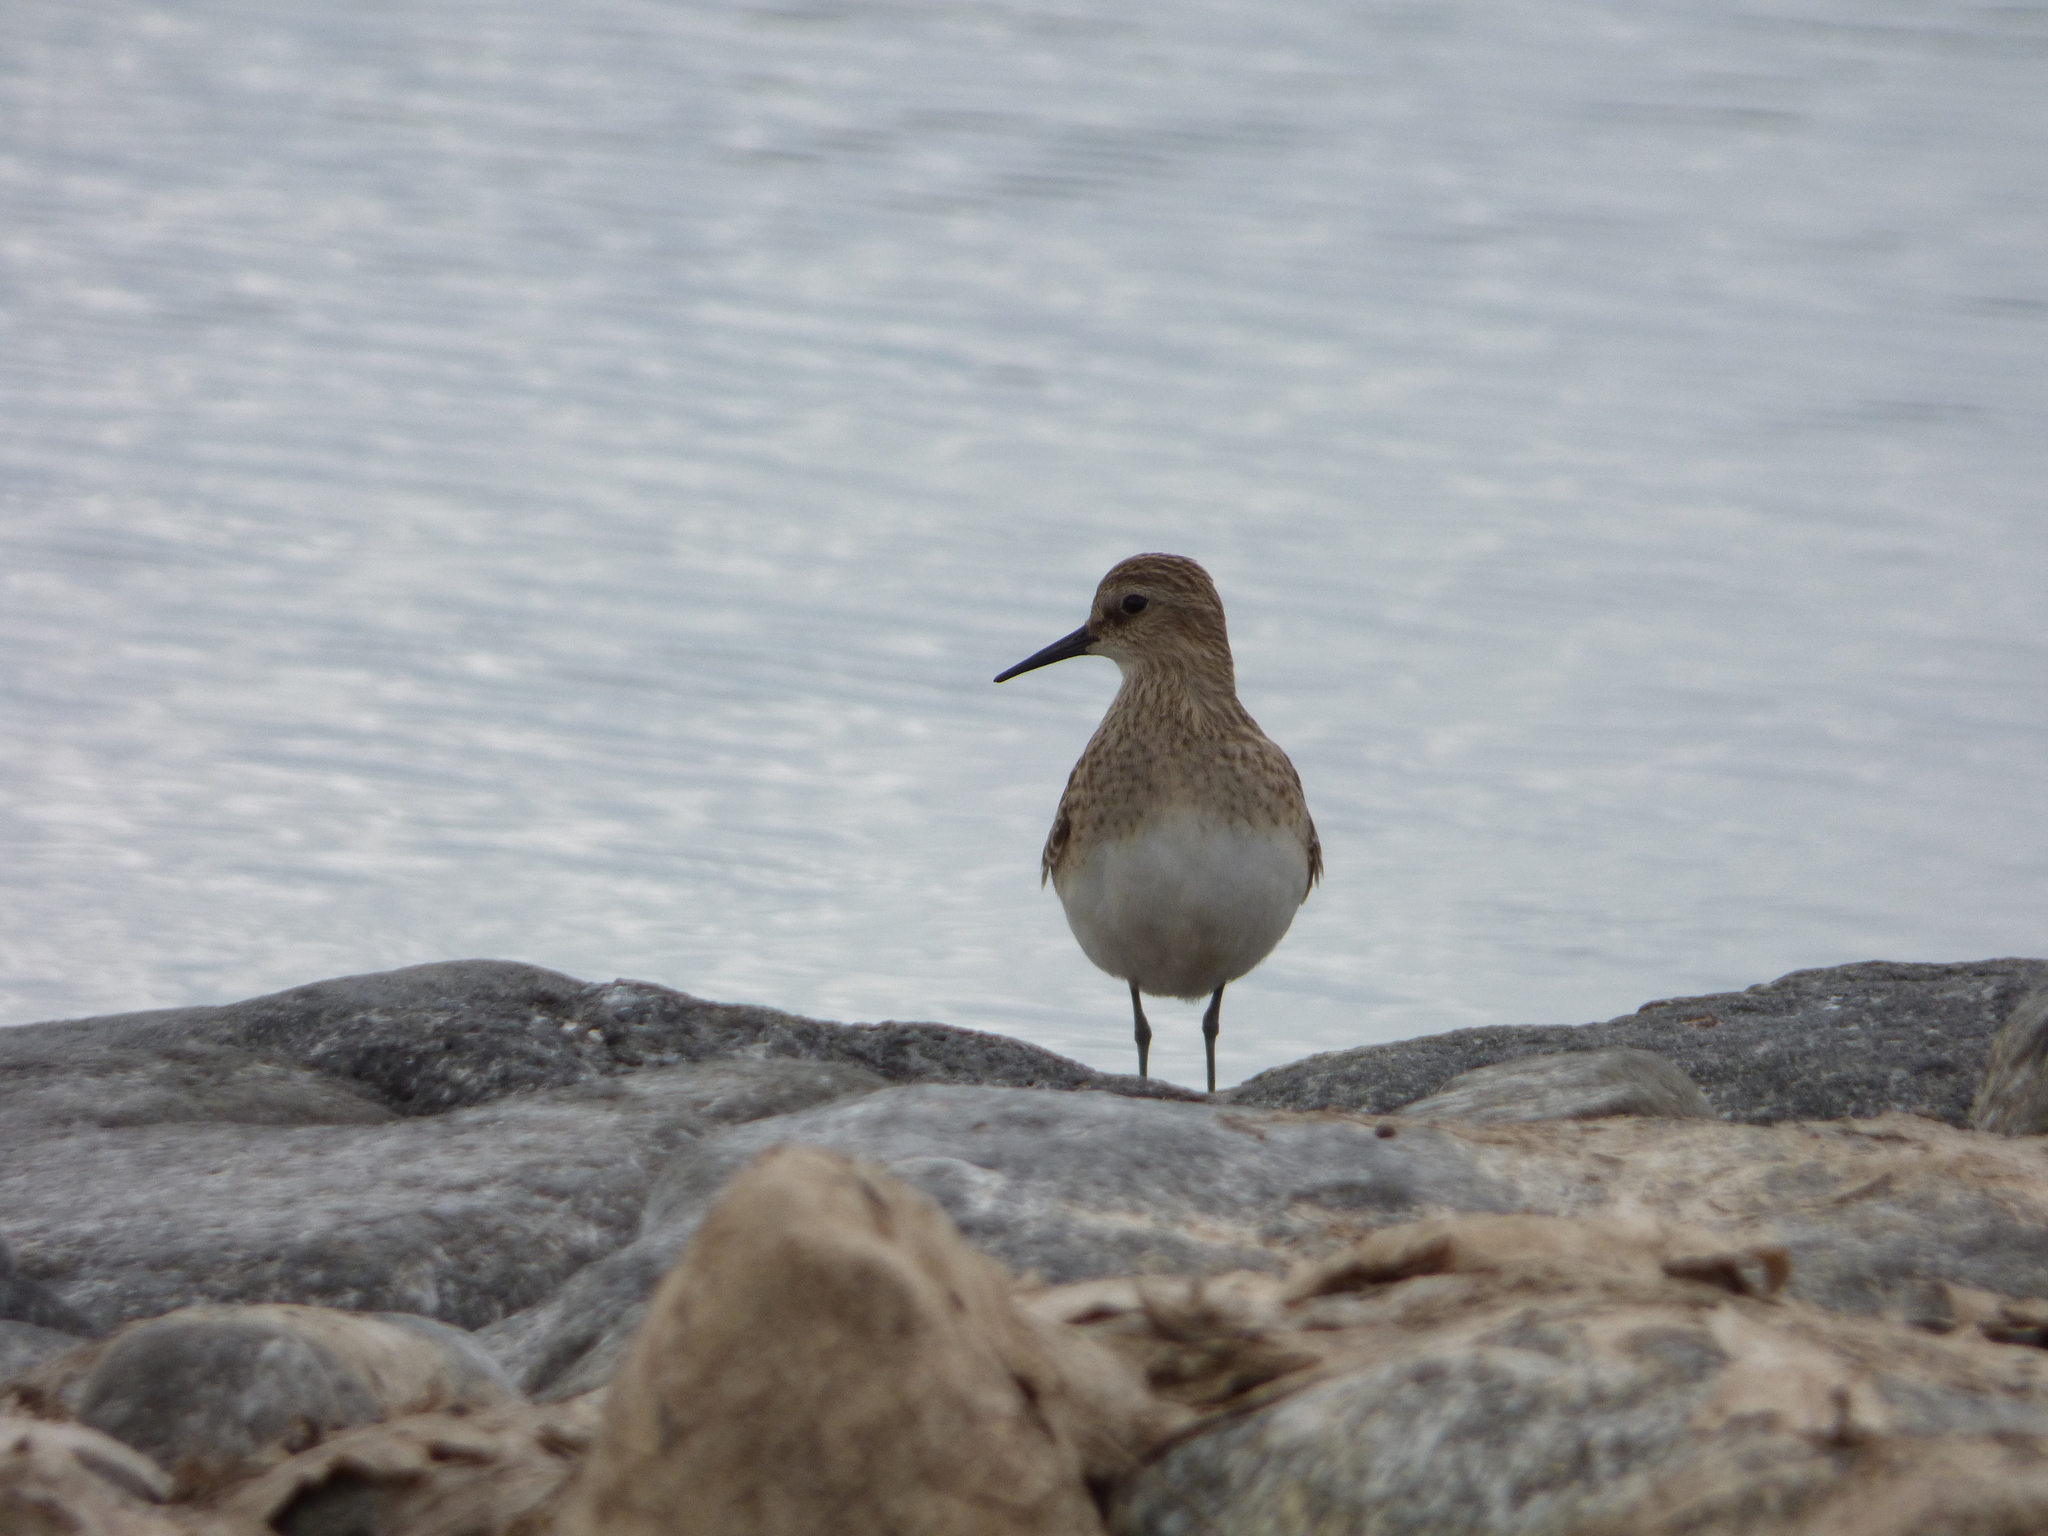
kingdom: Animalia
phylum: Chordata
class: Aves
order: Charadriiformes
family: Scolopacidae
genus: Calidris
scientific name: Calidris bairdii
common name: Baird's sandpiper
